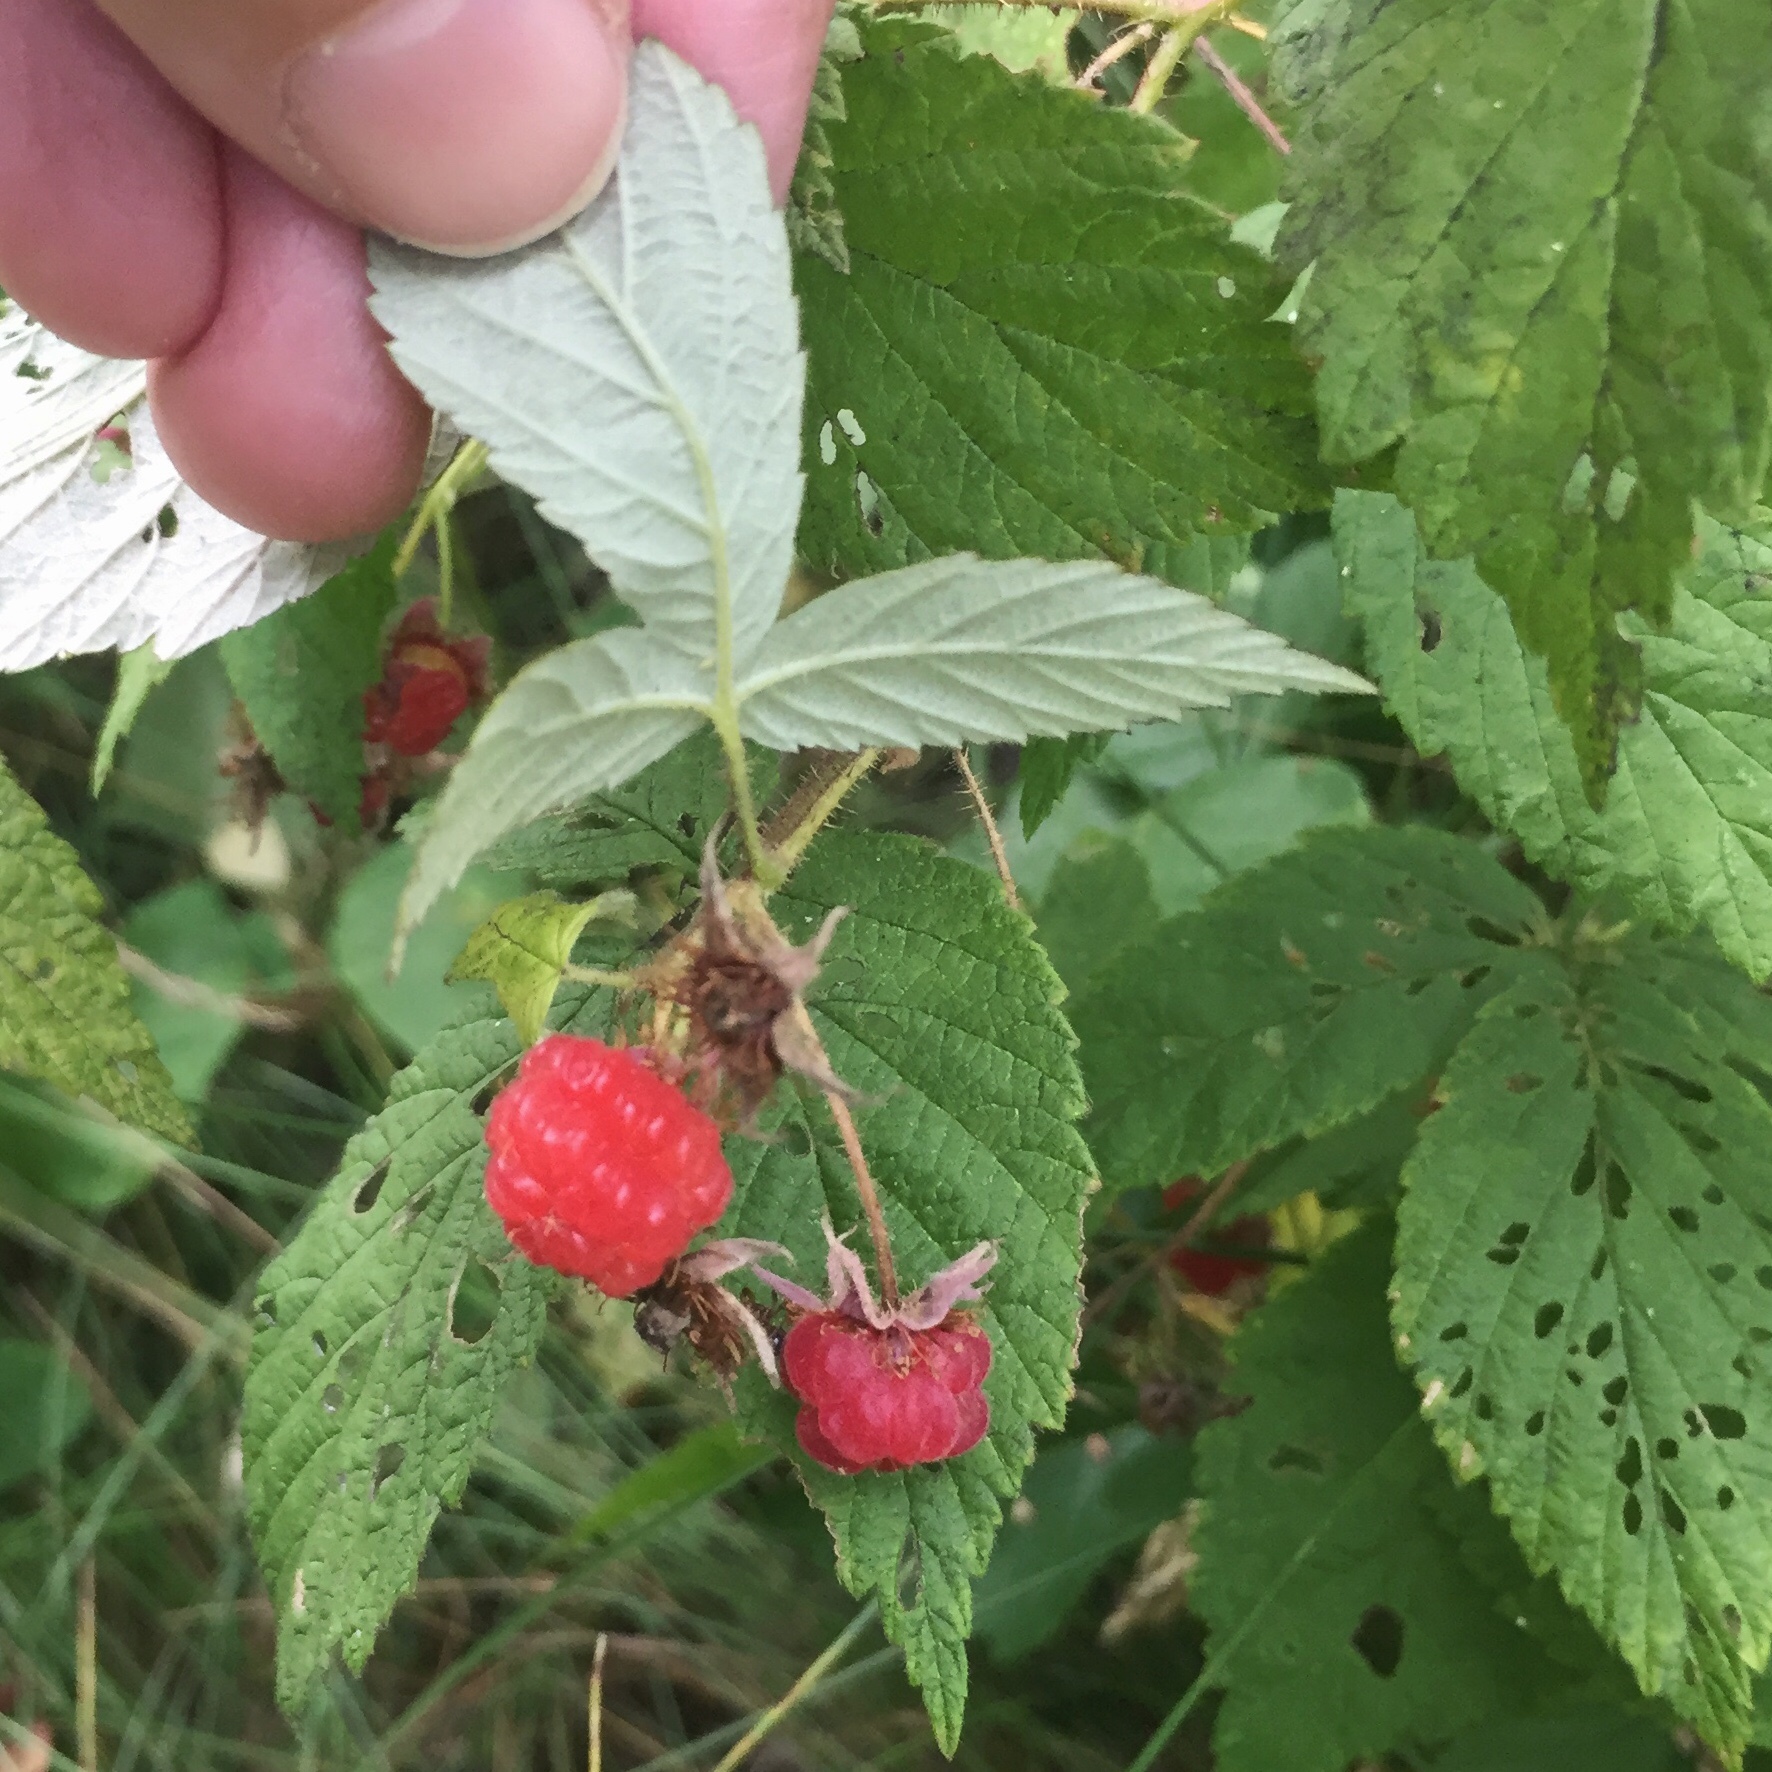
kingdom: Plantae
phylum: Tracheophyta
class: Magnoliopsida
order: Rosales
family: Rosaceae
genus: Rubus
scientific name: Rubus idaeus
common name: Raspberry
